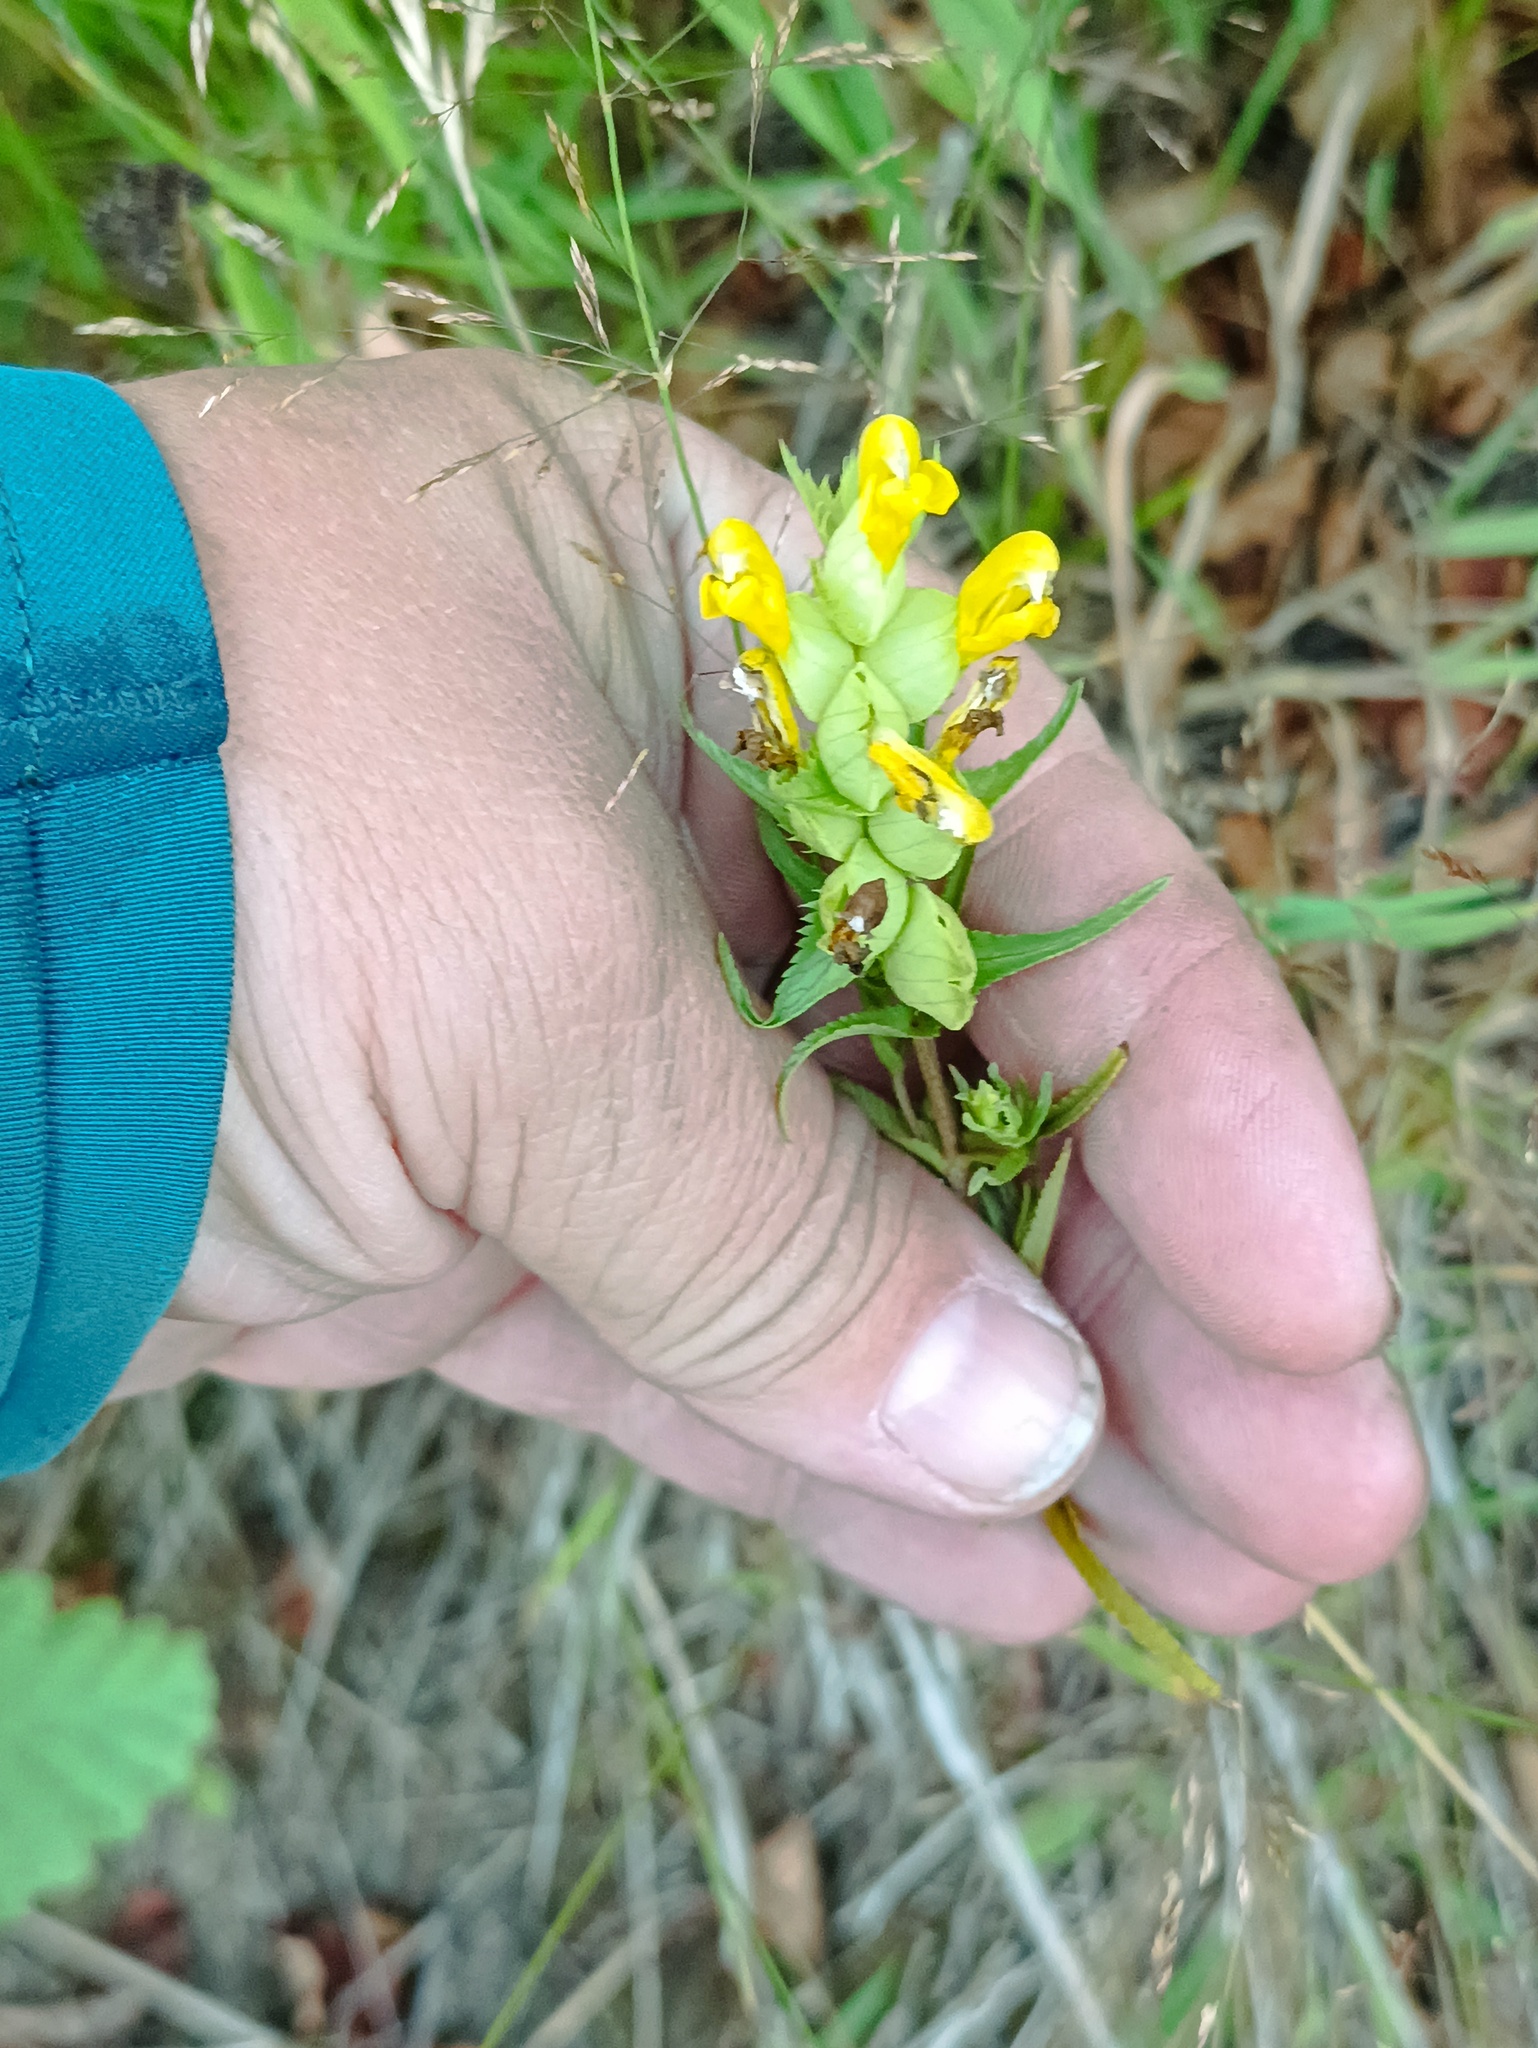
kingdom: Plantae
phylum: Tracheophyta
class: Magnoliopsida
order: Lamiales
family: Orobanchaceae
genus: Rhinanthus
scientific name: Rhinanthus serotinus
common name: Late-flowering yellow rattle
